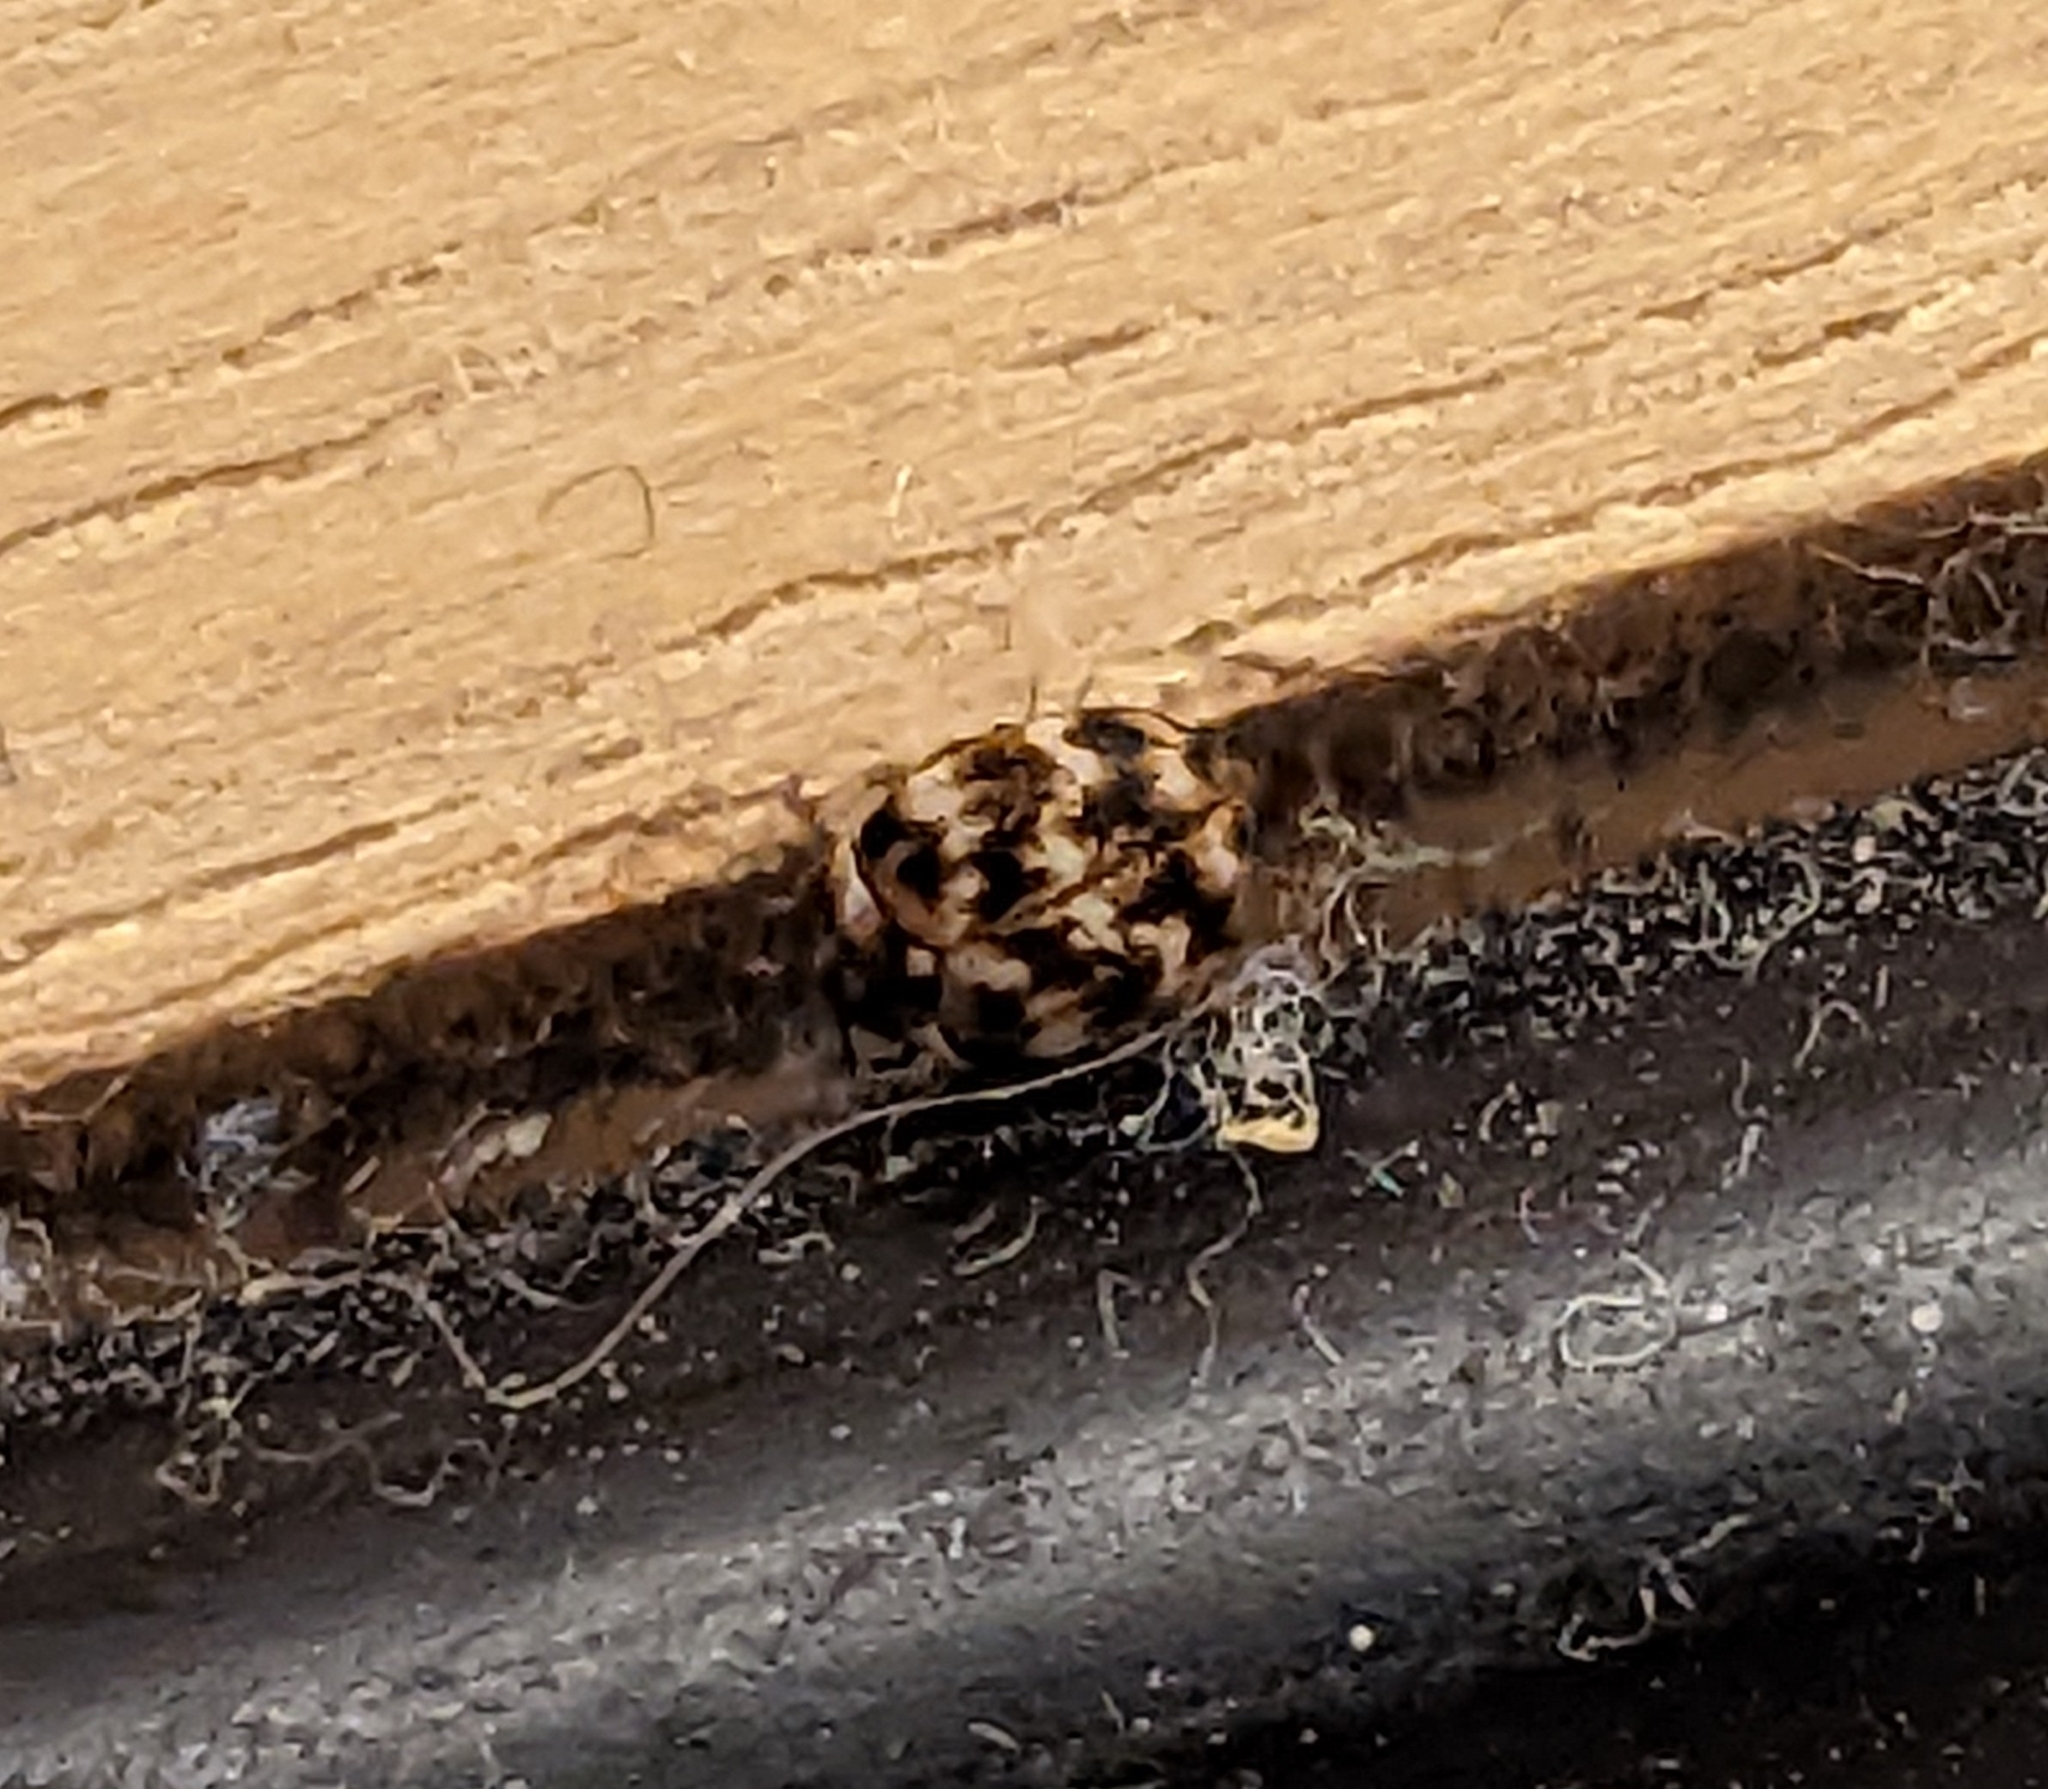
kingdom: Animalia
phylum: Arthropoda
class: Insecta
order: Coleoptera
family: Dermestidae
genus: Anthrenus
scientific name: Anthrenus verbasci
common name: Varied carpet beetle
